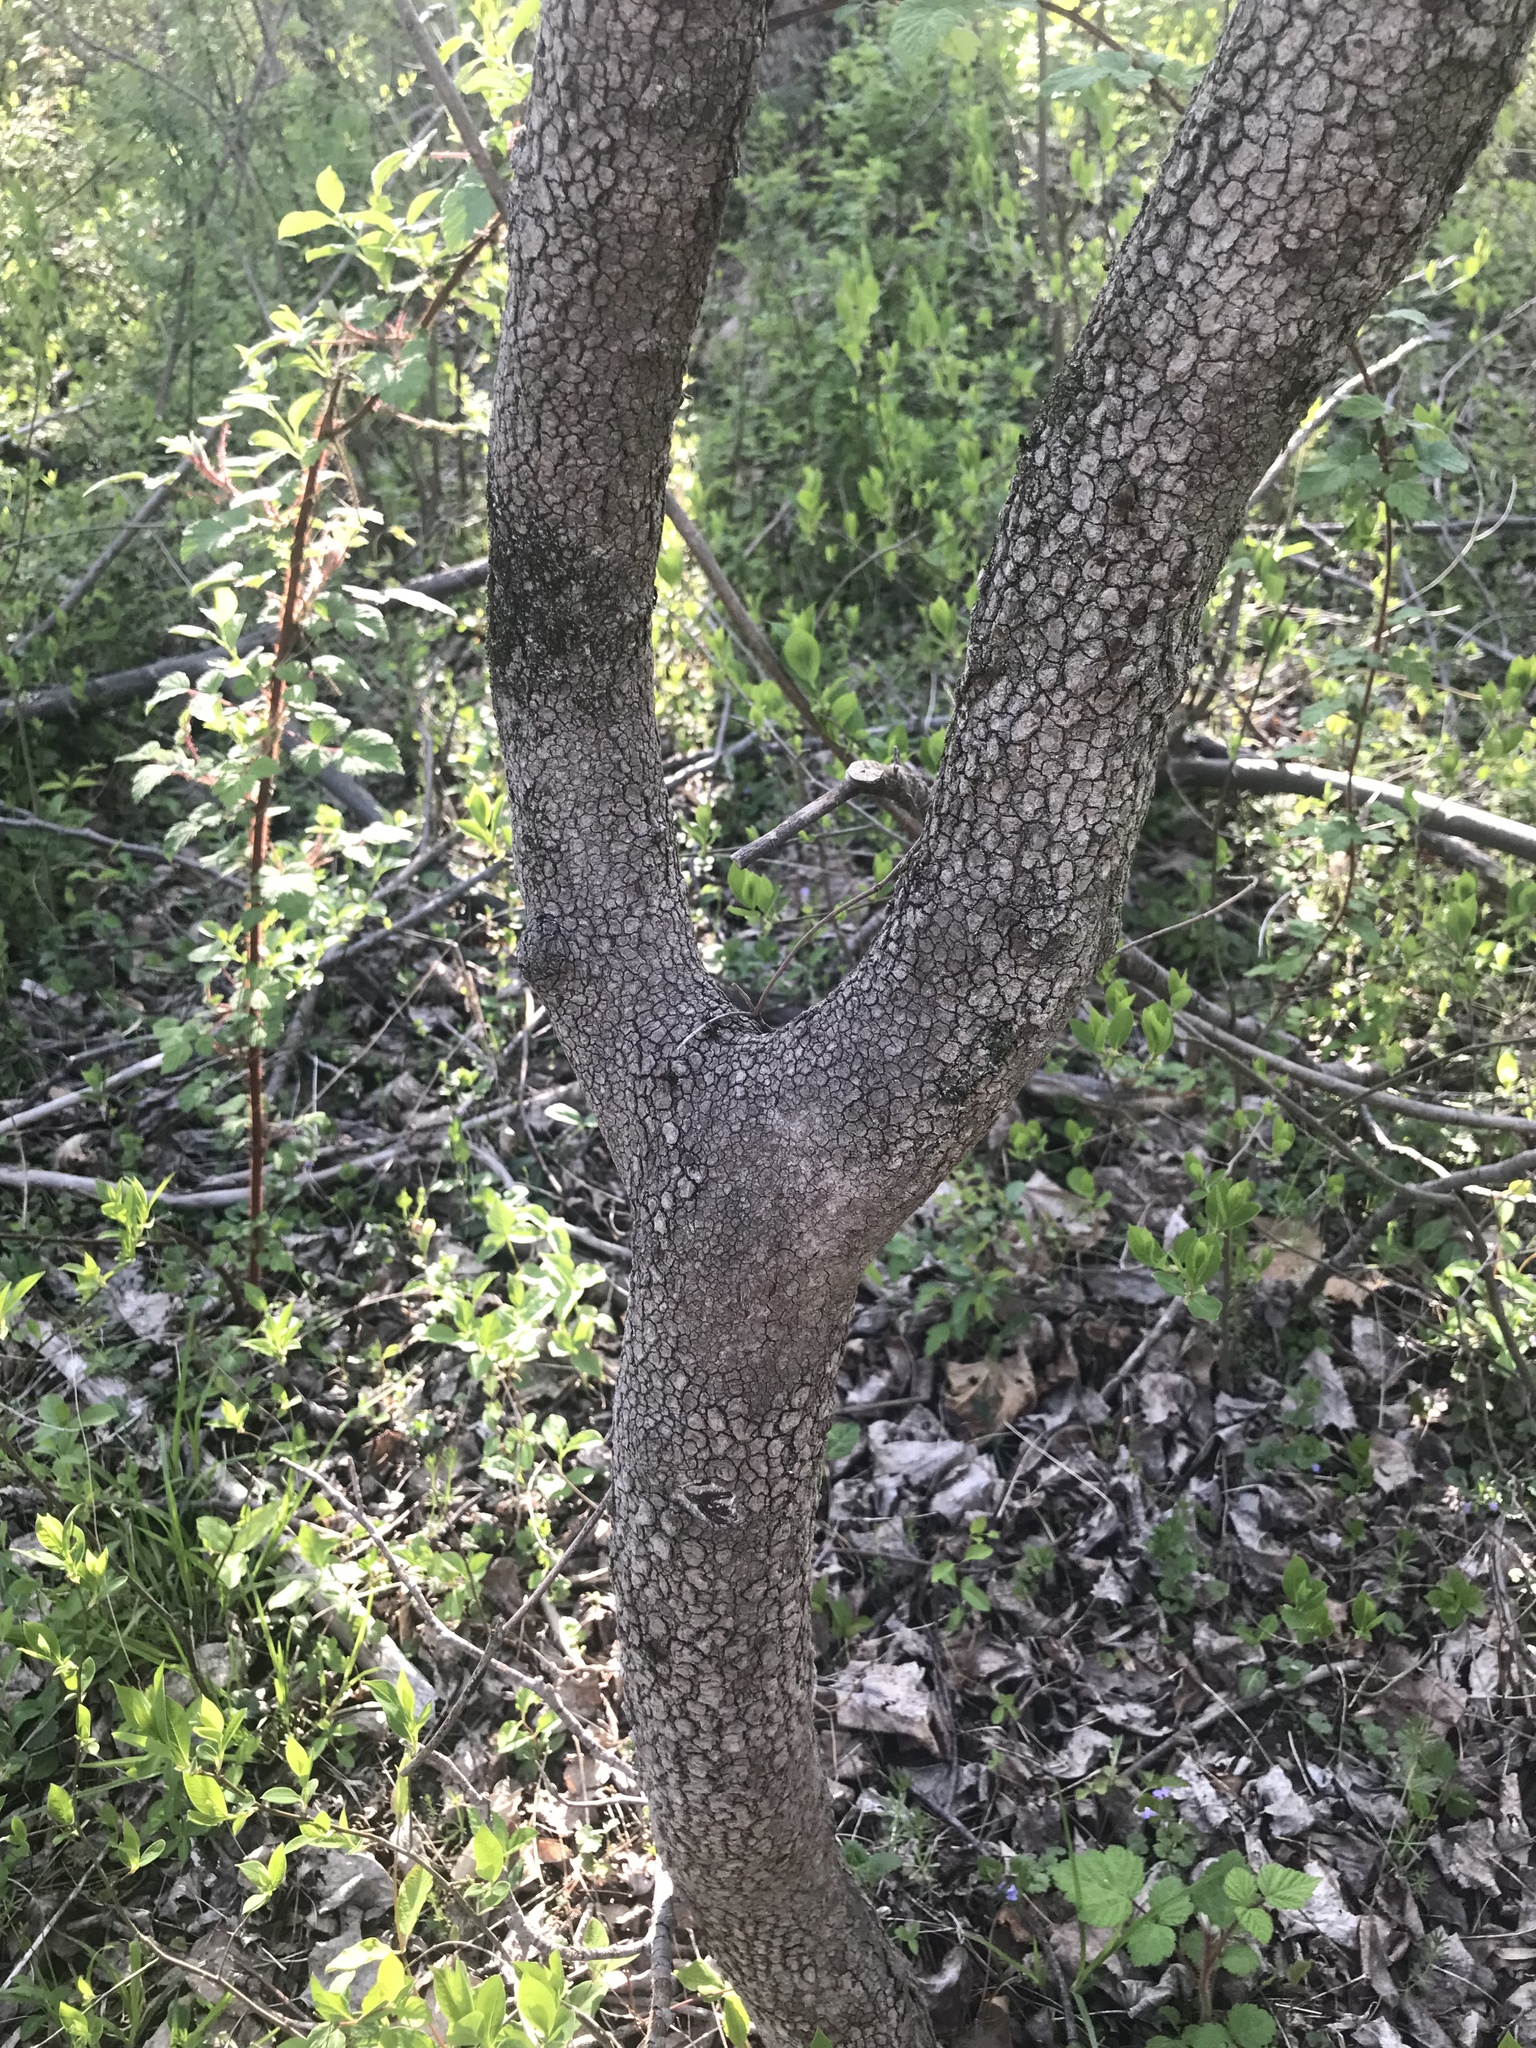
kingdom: Plantae
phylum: Tracheophyta
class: Magnoliopsida
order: Cornales
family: Cornaceae
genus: Cornus
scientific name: Cornus florida
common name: Flowering dogwood
